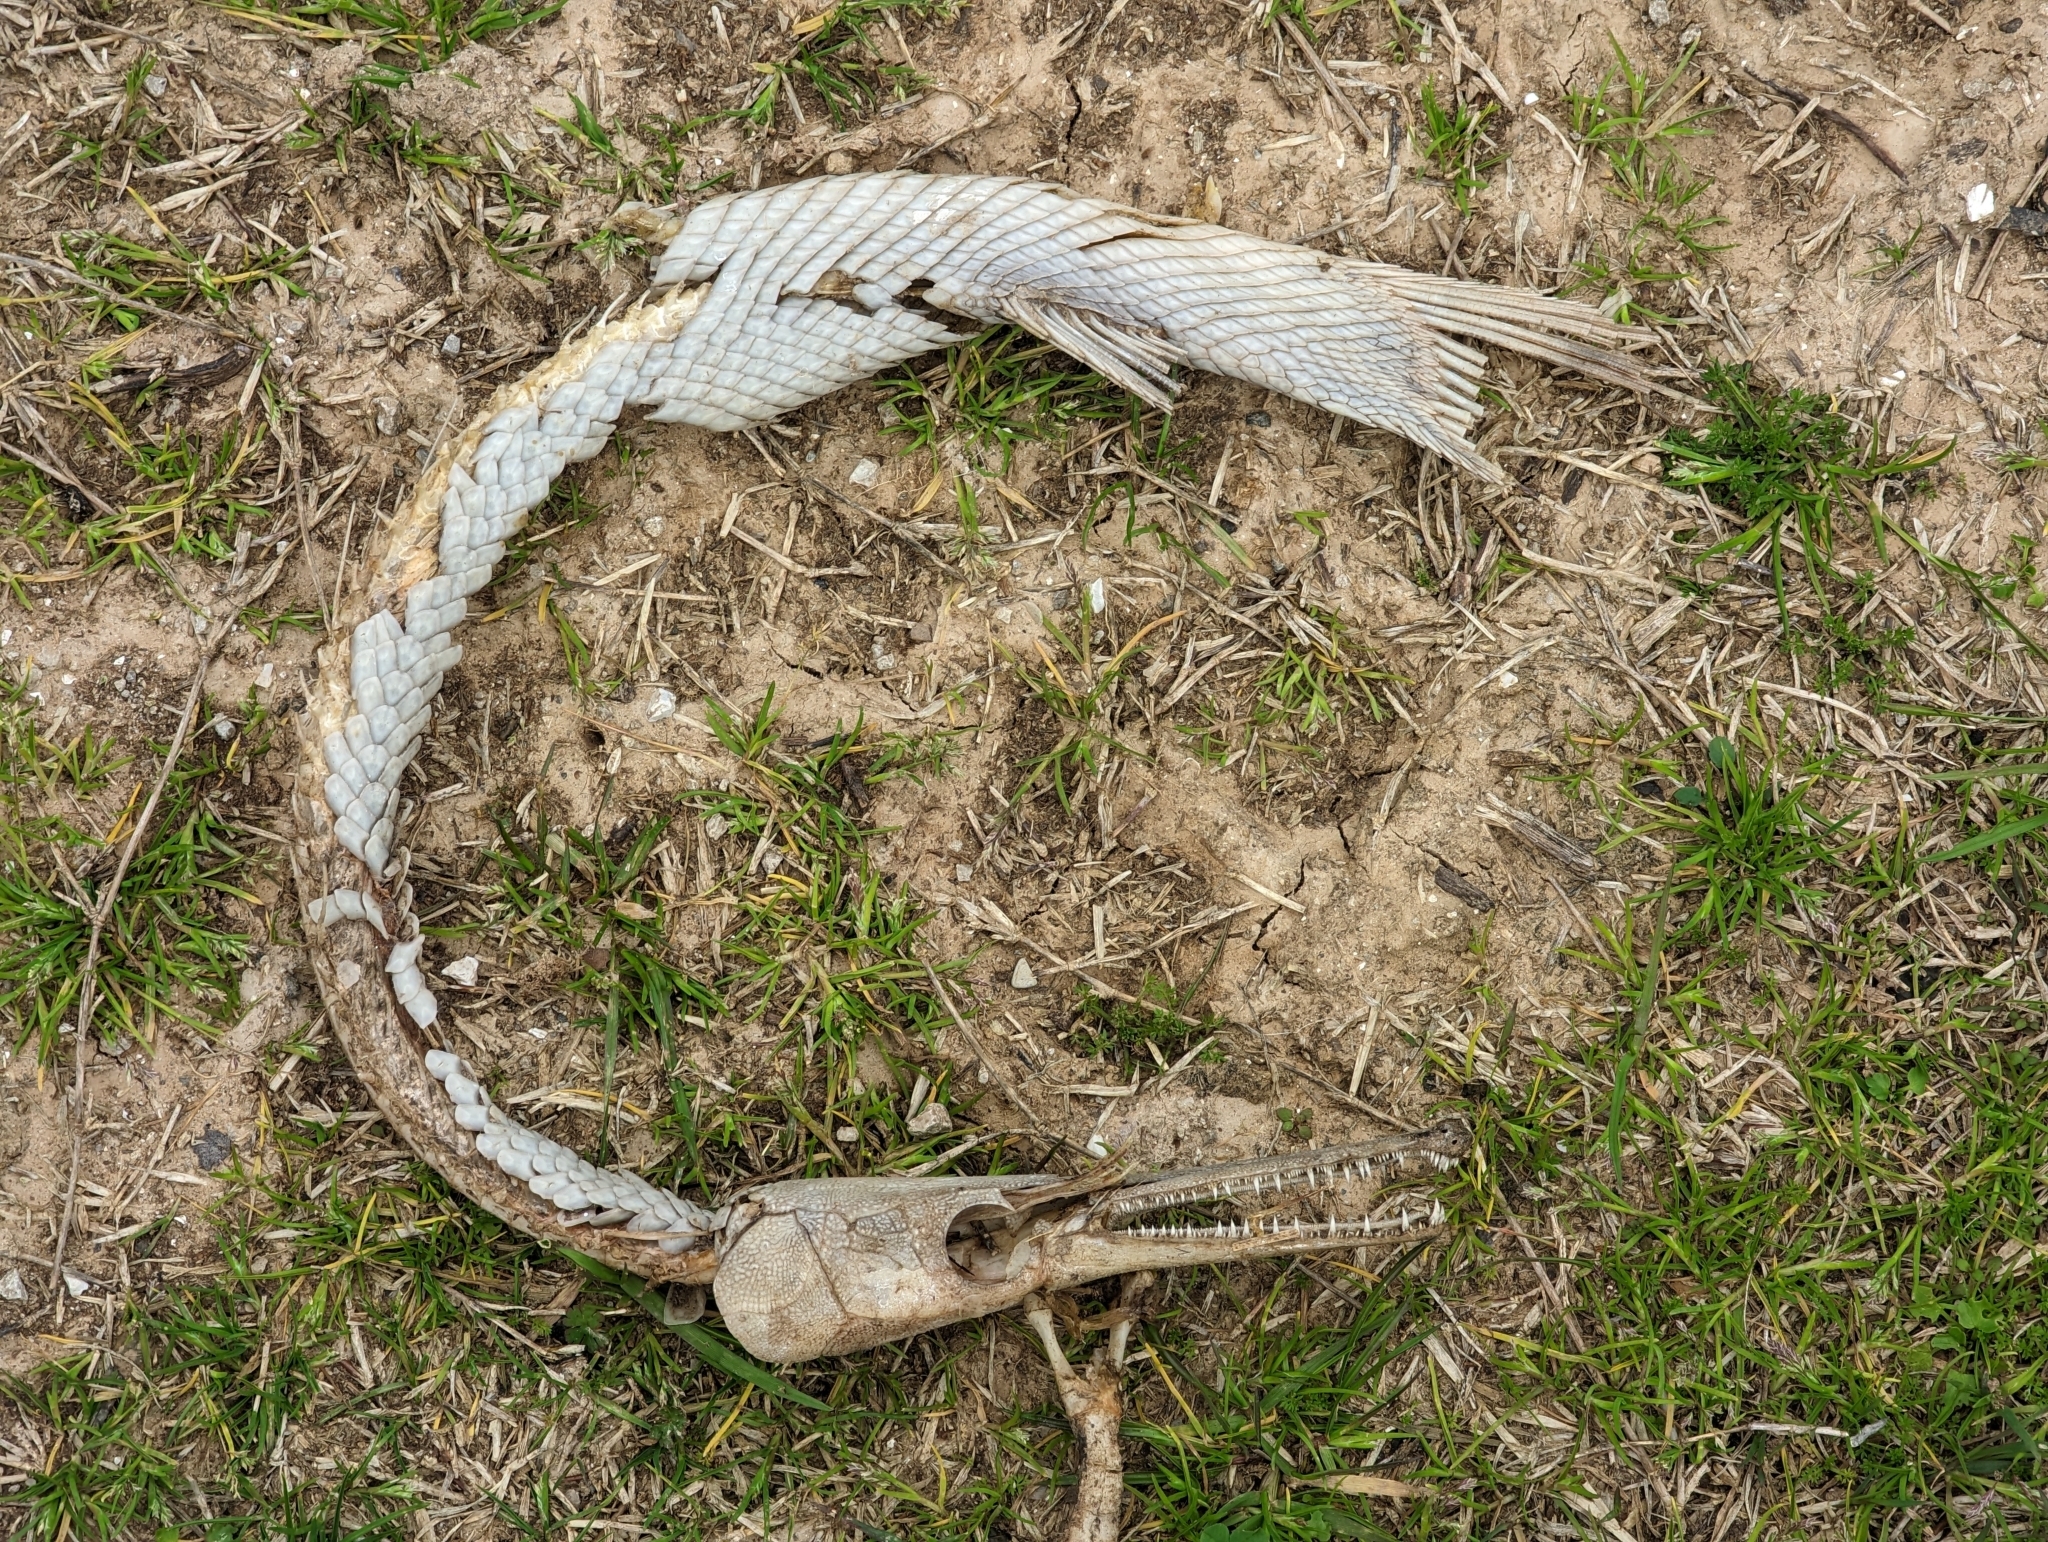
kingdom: Animalia
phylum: Chordata
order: Lepisosteiformes
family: Lepisosteidae
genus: Lepisosteus
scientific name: Lepisosteus platostomus
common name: Shortnose gar
